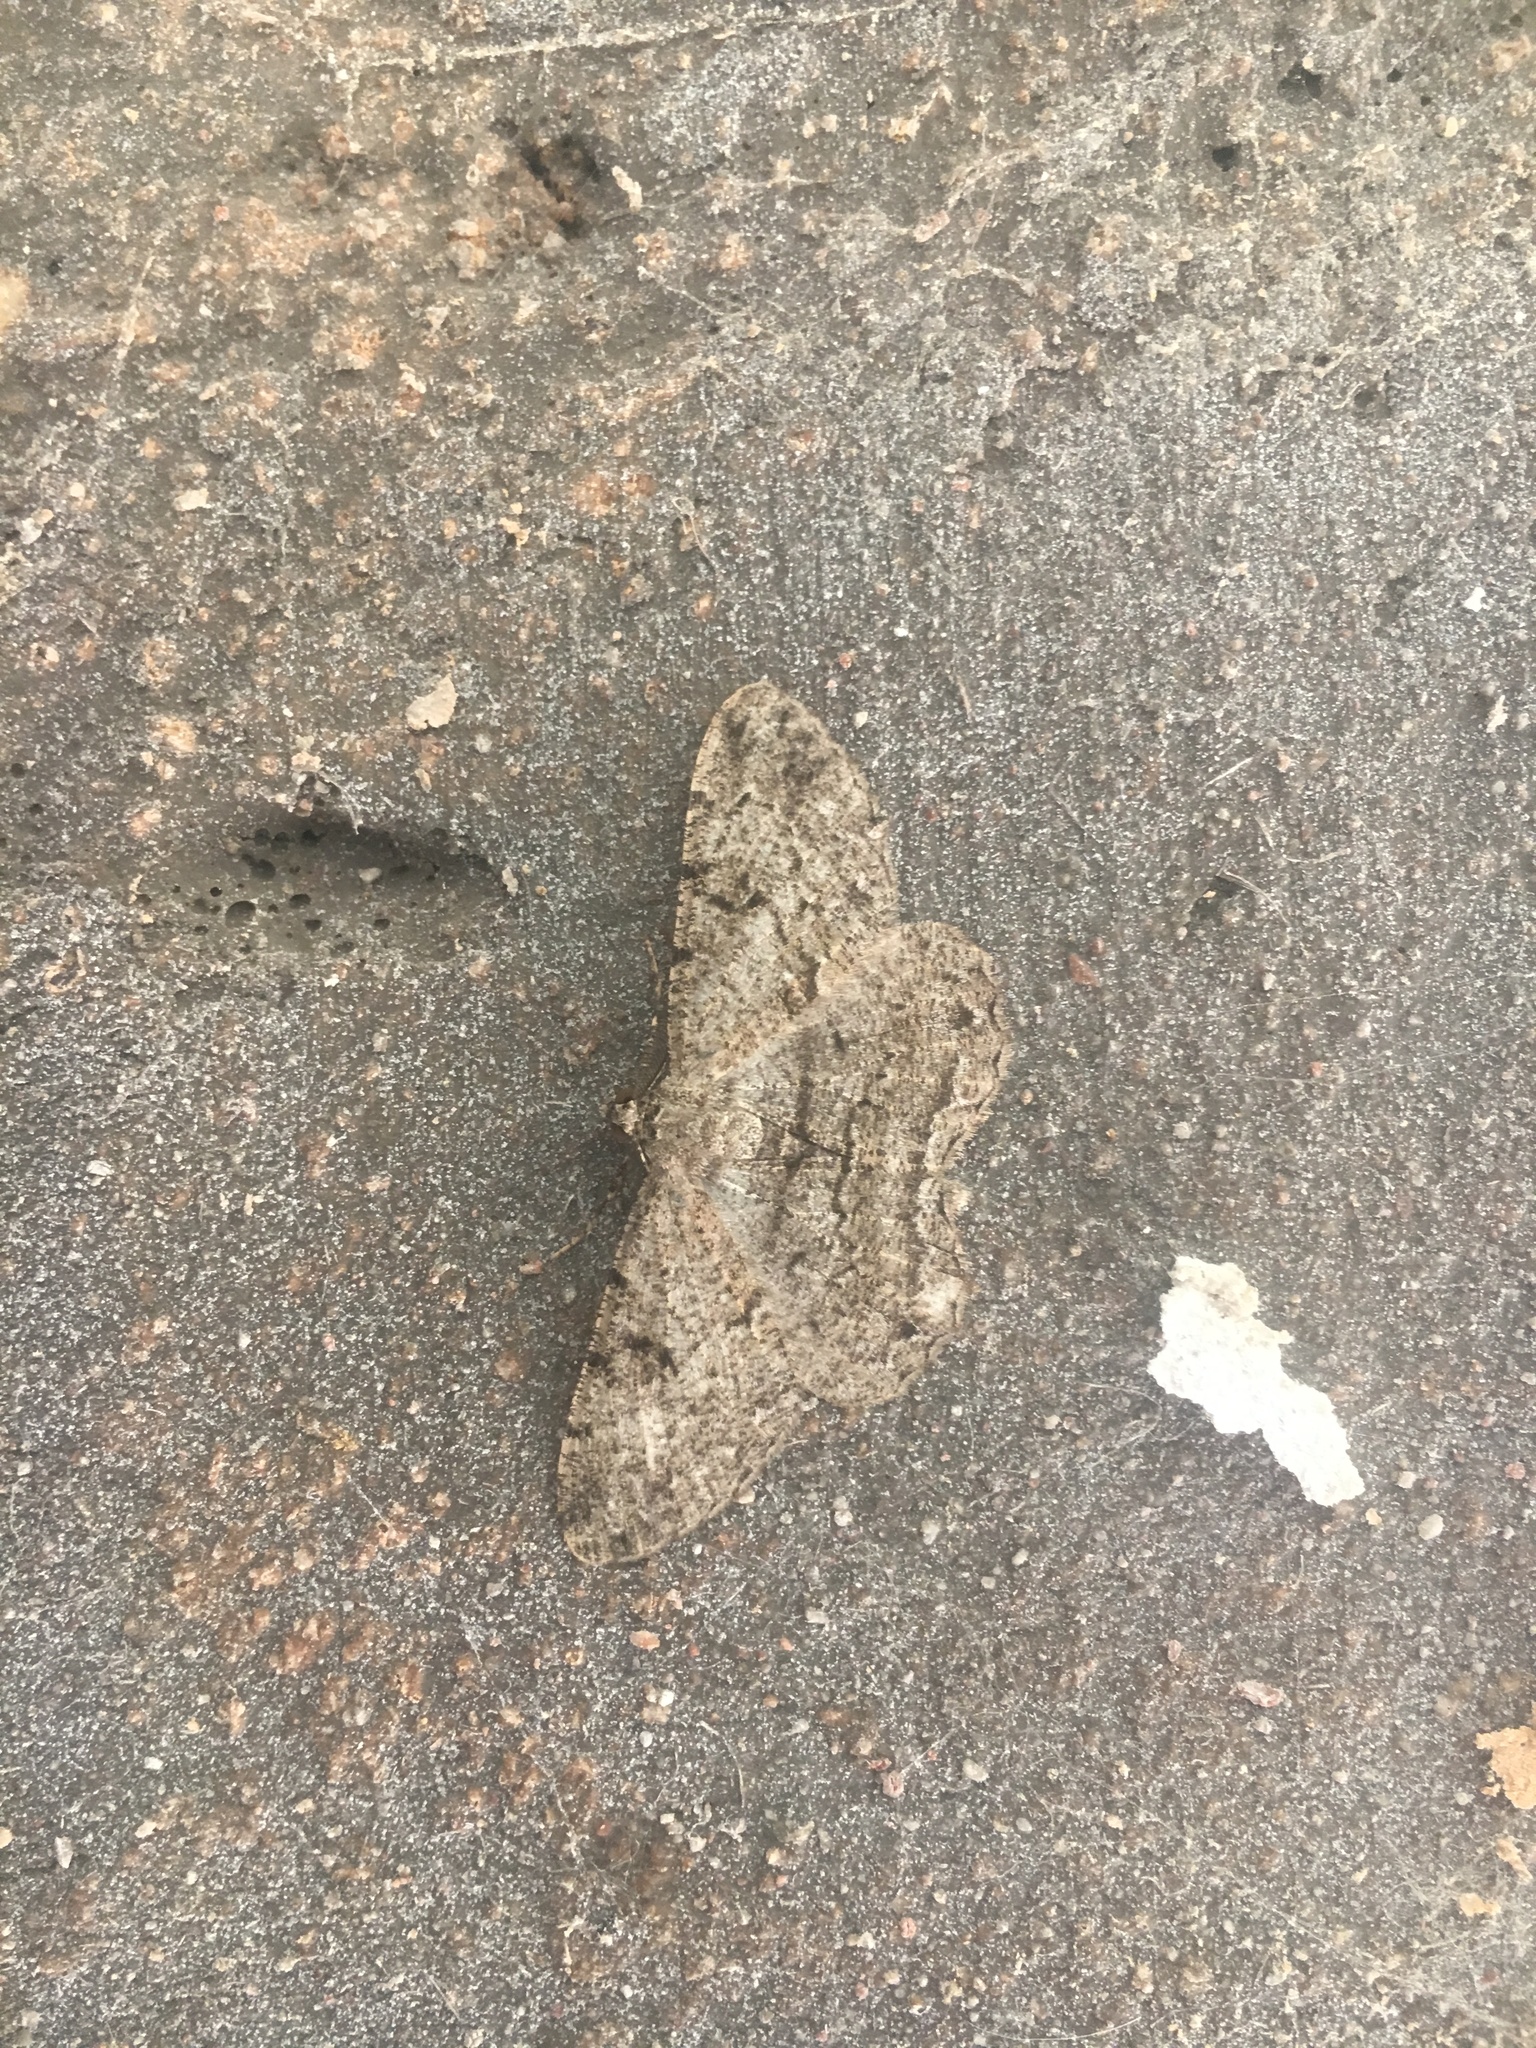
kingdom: Animalia
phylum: Arthropoda
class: Insecta
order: Lepidoptera
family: Geometridae
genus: Peribatodes
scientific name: Peribatodes rhomboidaria
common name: Willow beauty
